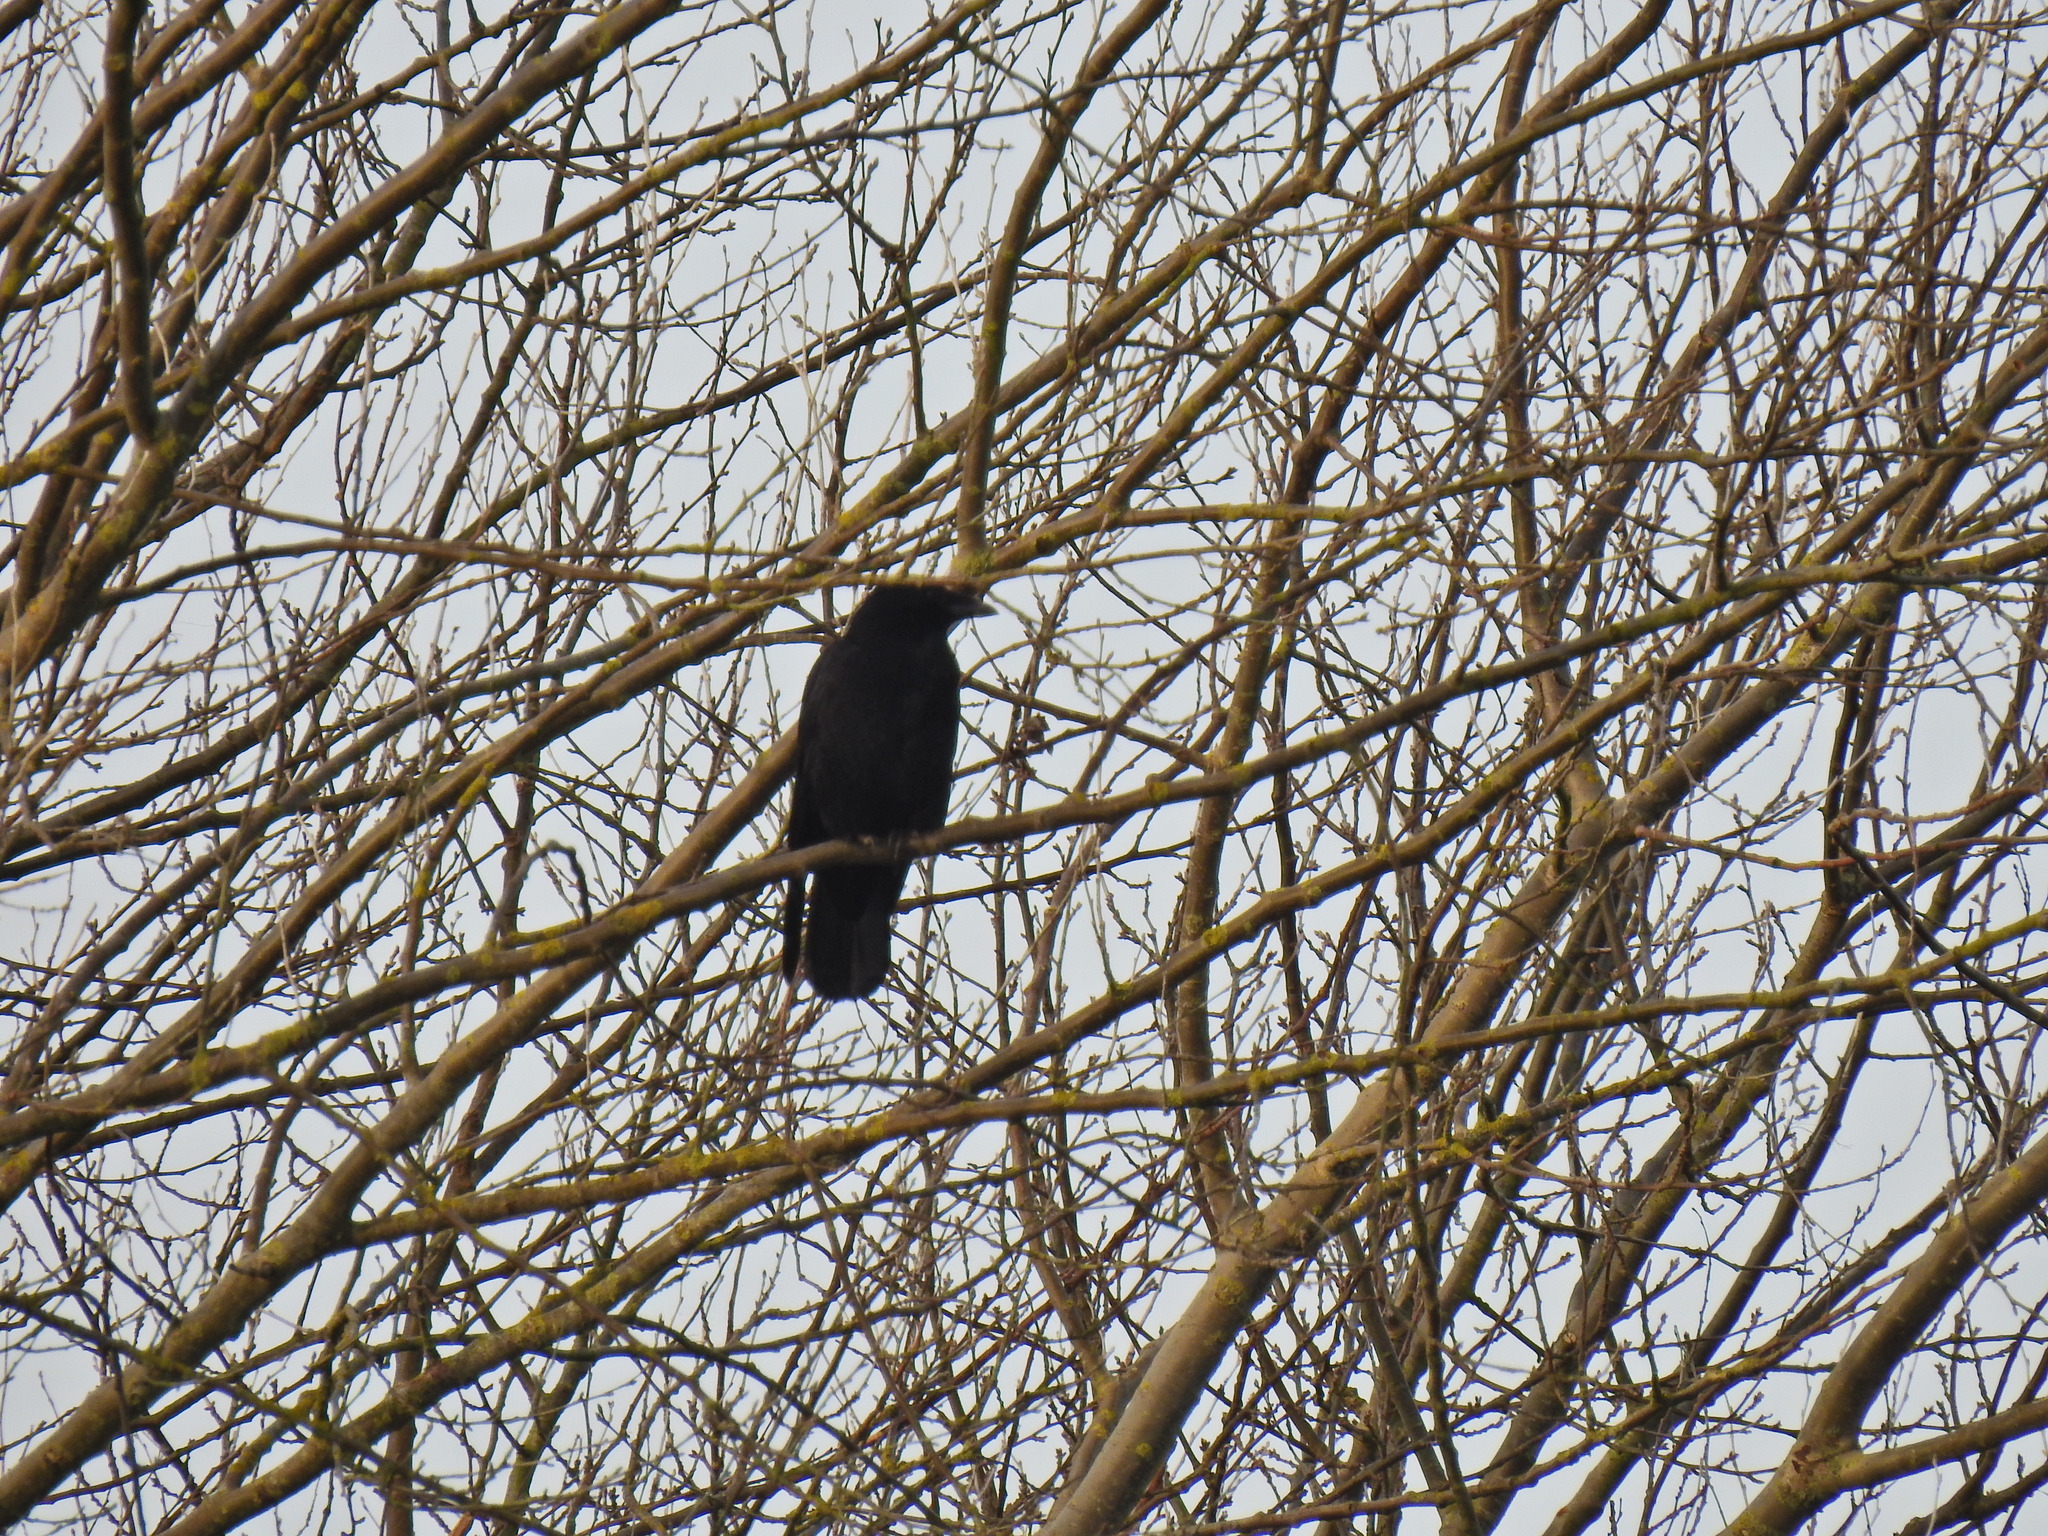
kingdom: Animalia
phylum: Chordata
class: Aves
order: Passeriformes
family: Corvidae
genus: Corvus
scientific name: Corvus corone
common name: Carrion crow
